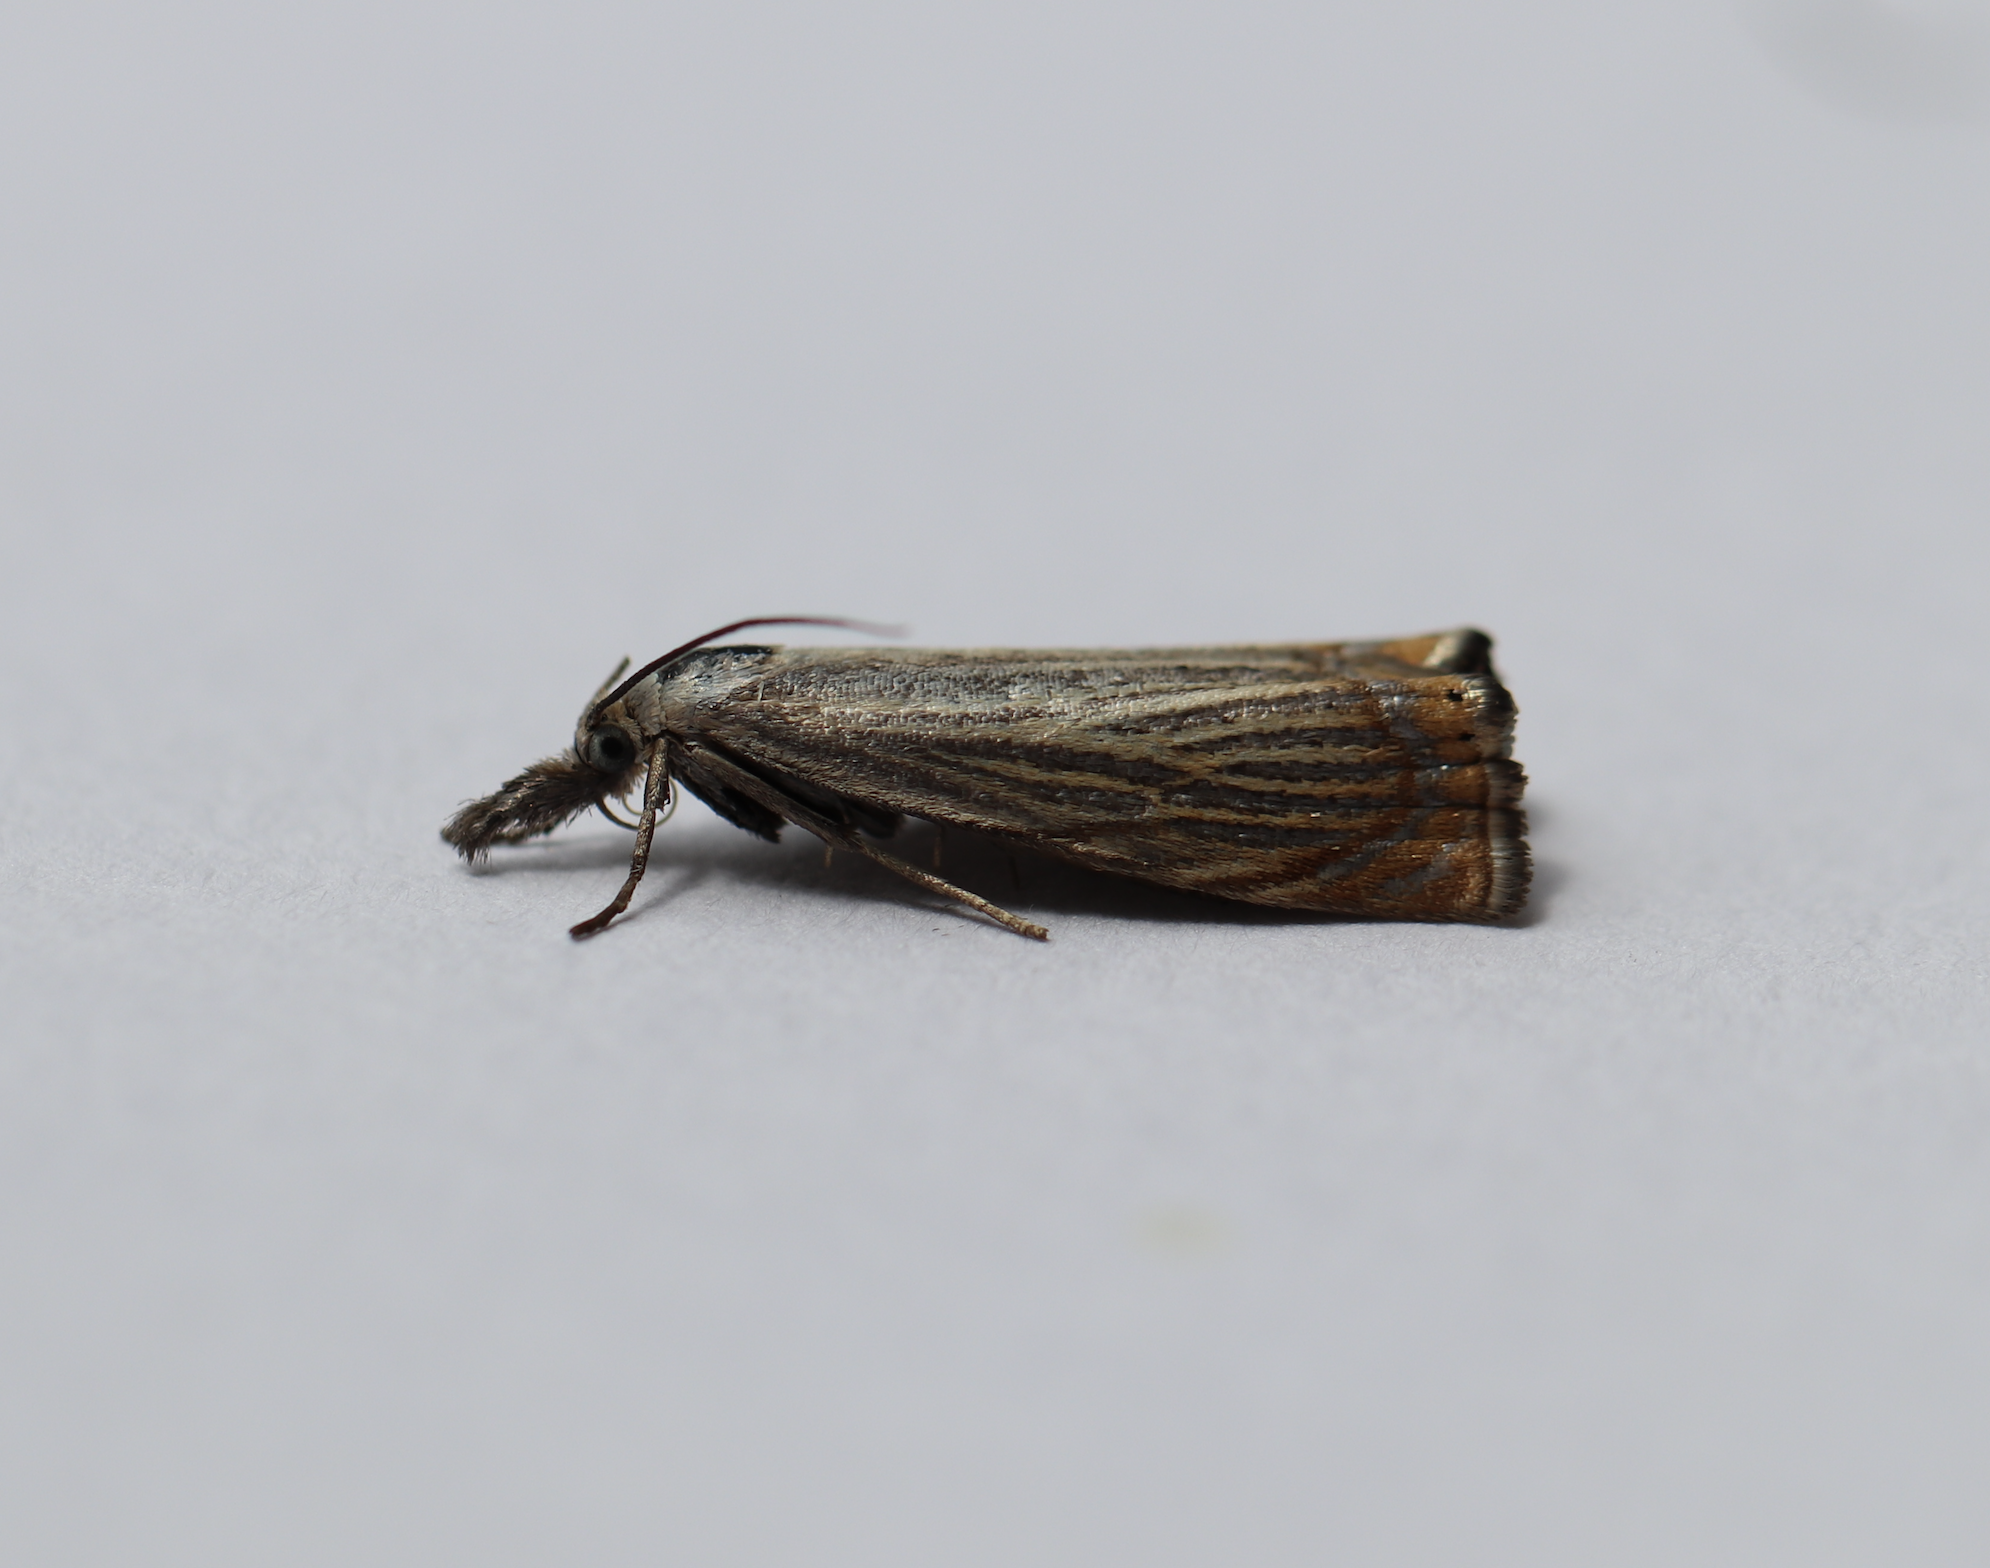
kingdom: Animalia
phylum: Arthropoda
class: Insecta
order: Lepidoptera
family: Crambidae
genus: Chrysoteuchia
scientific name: Chrysoteuchia culmella
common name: Garden grass-veneer
